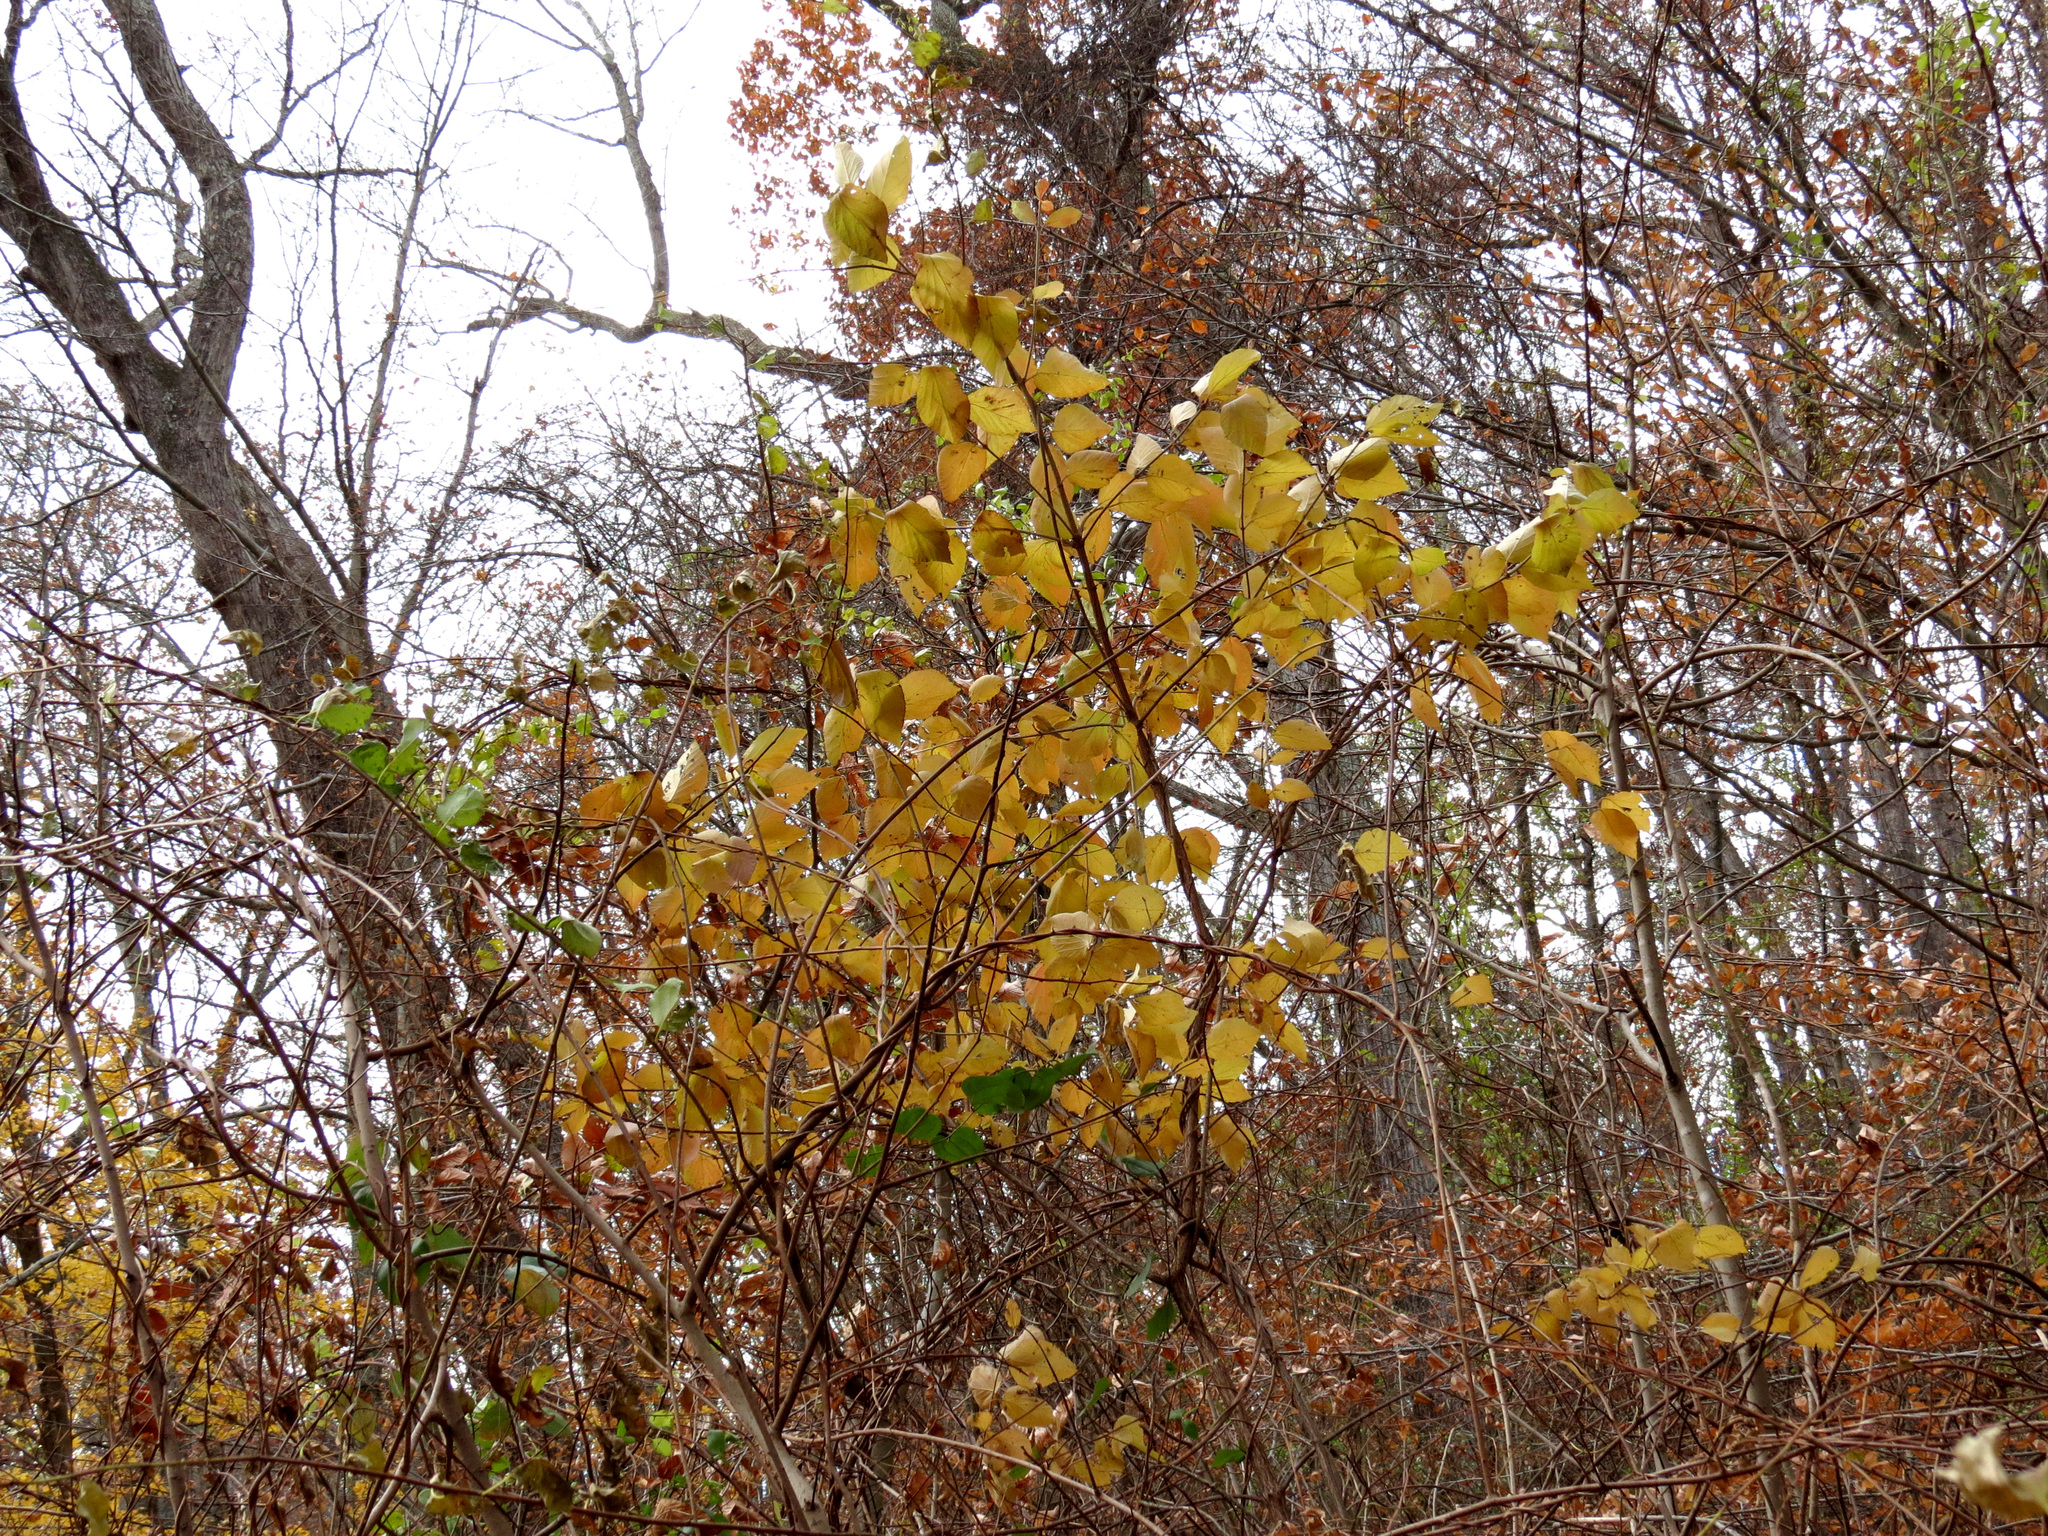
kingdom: Plantae
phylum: Tracheophyta
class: Magnoliopsida
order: Dipsacales
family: Viburnaceae
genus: Viburnum
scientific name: Viburnum dilatatum
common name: Linden arrowwood
